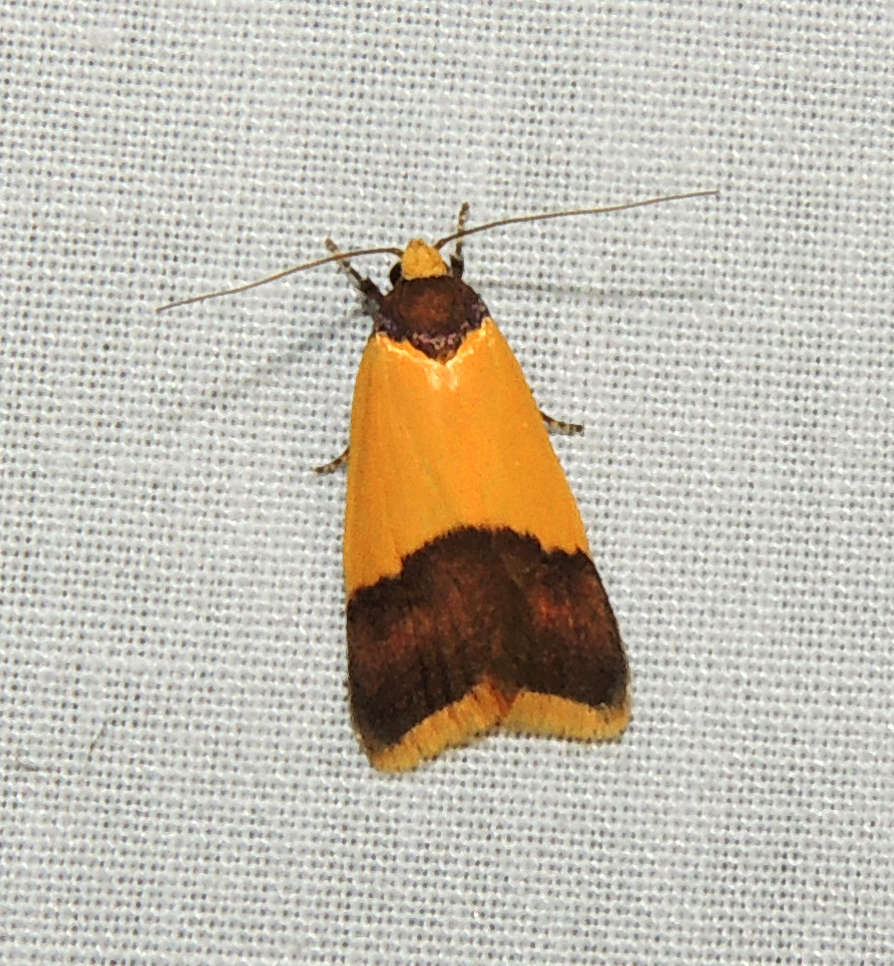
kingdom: Animalia
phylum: Arthropoda
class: Insecta
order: Lepidoptera
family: Oecophoridae
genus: Heteroteucha
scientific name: Heteroteucha dichroella
